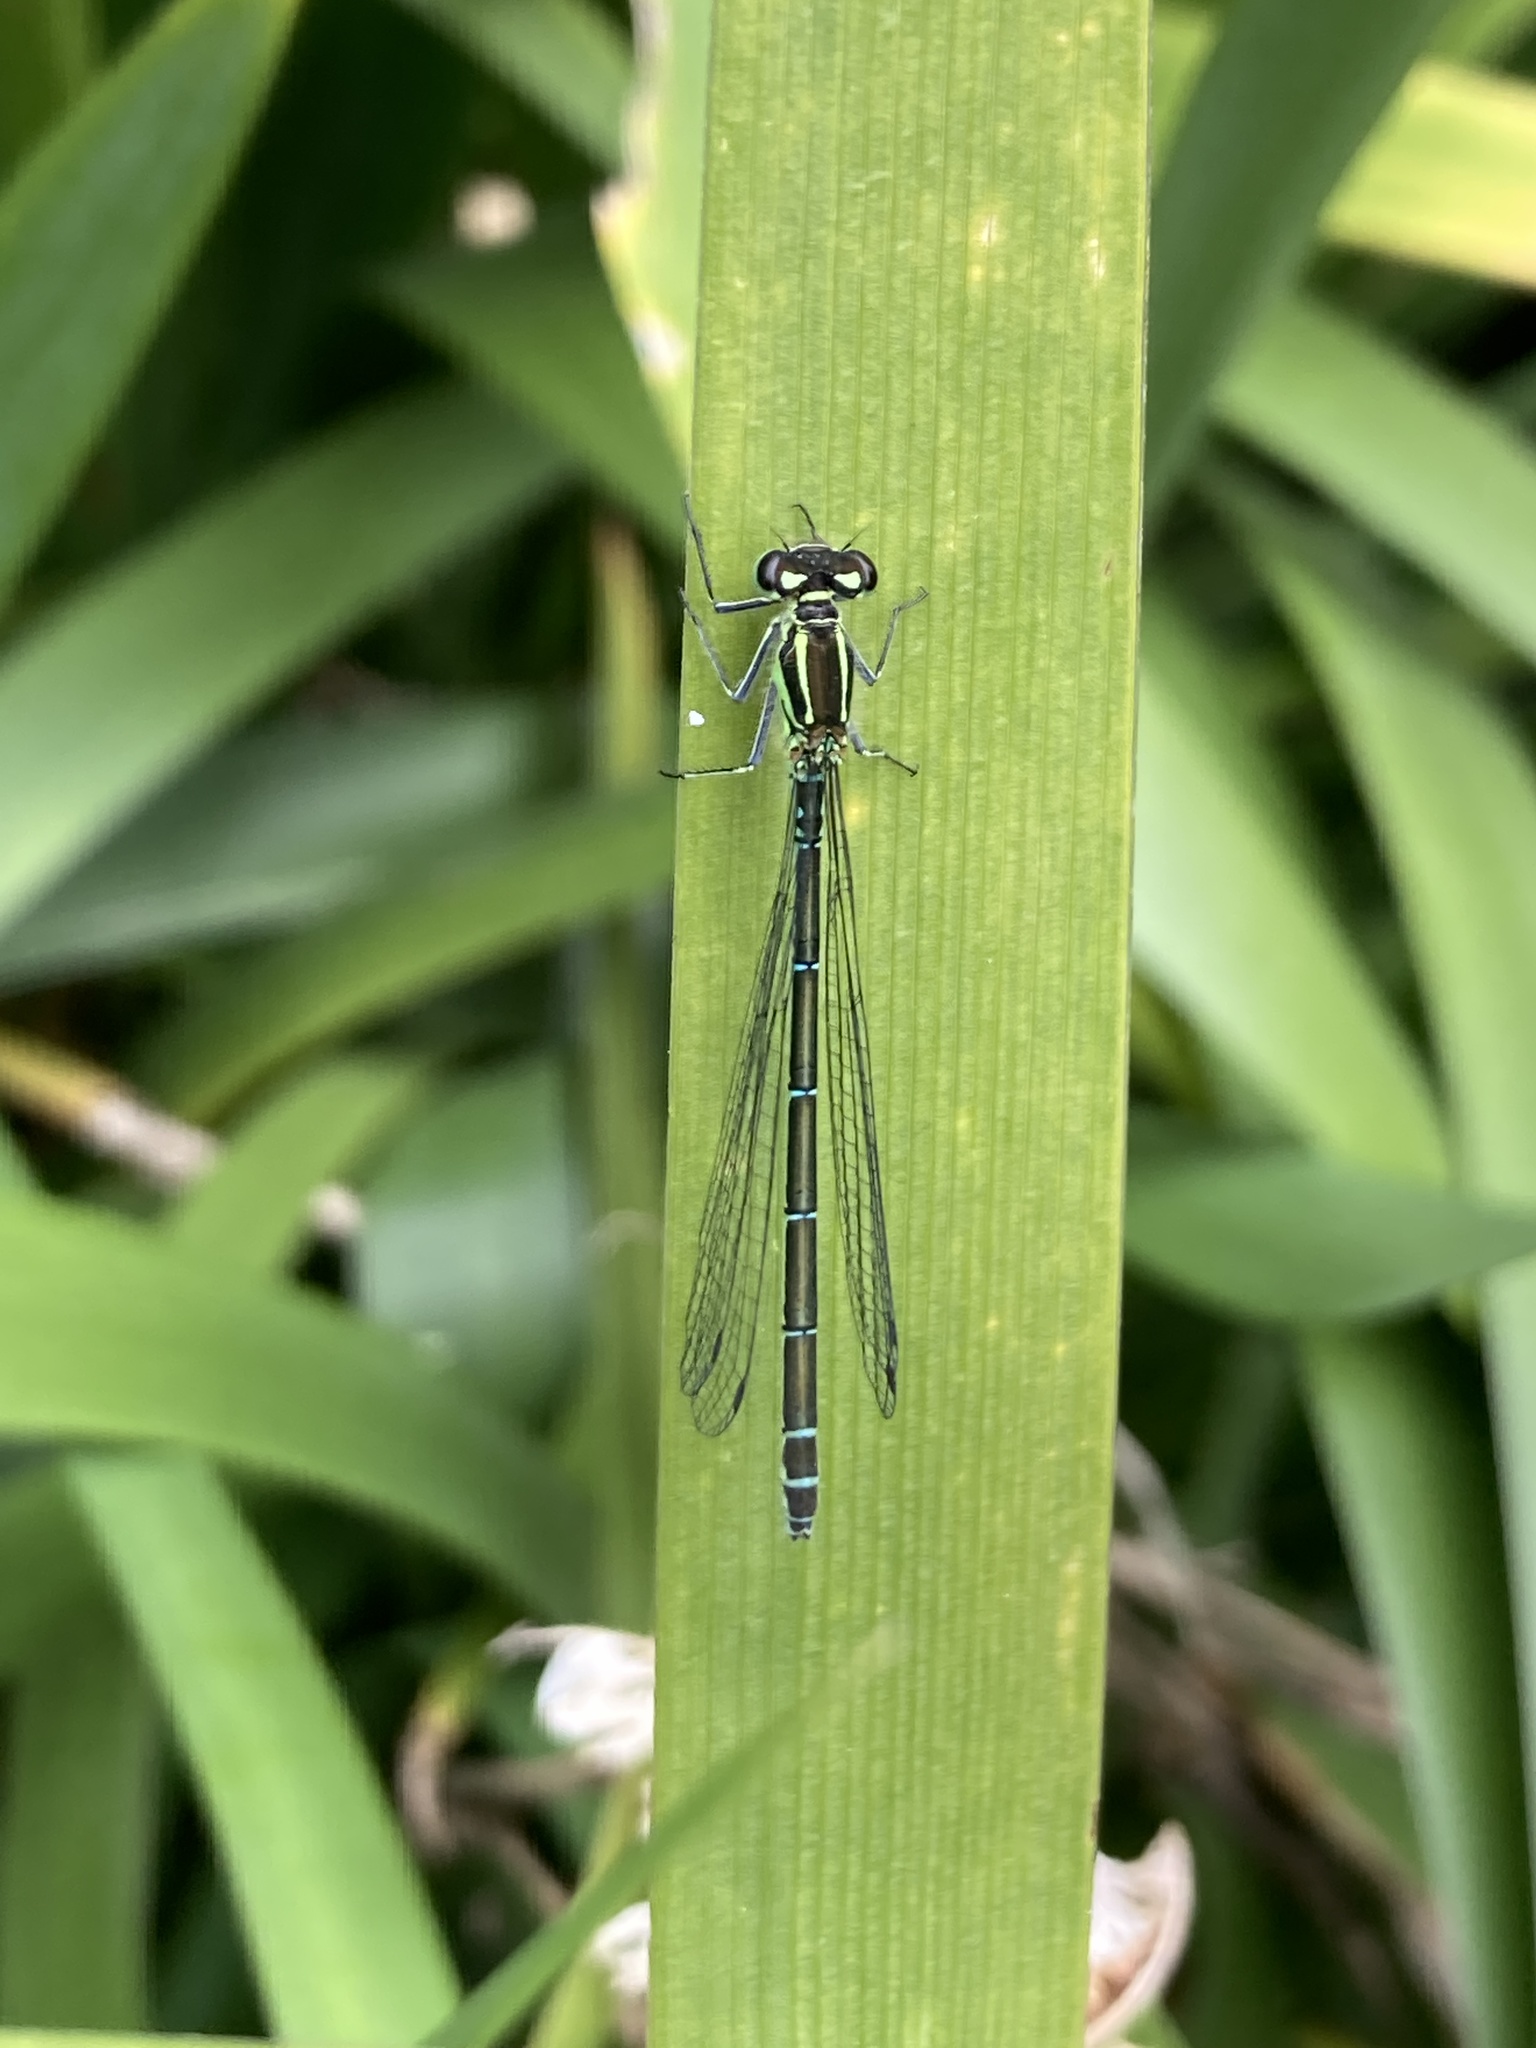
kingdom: Animalia
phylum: Arthropoda
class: Insecta
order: Odonata
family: Coenagrionidae
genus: Coenagrion
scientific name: Coenagrion puella
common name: Azure damselfly
